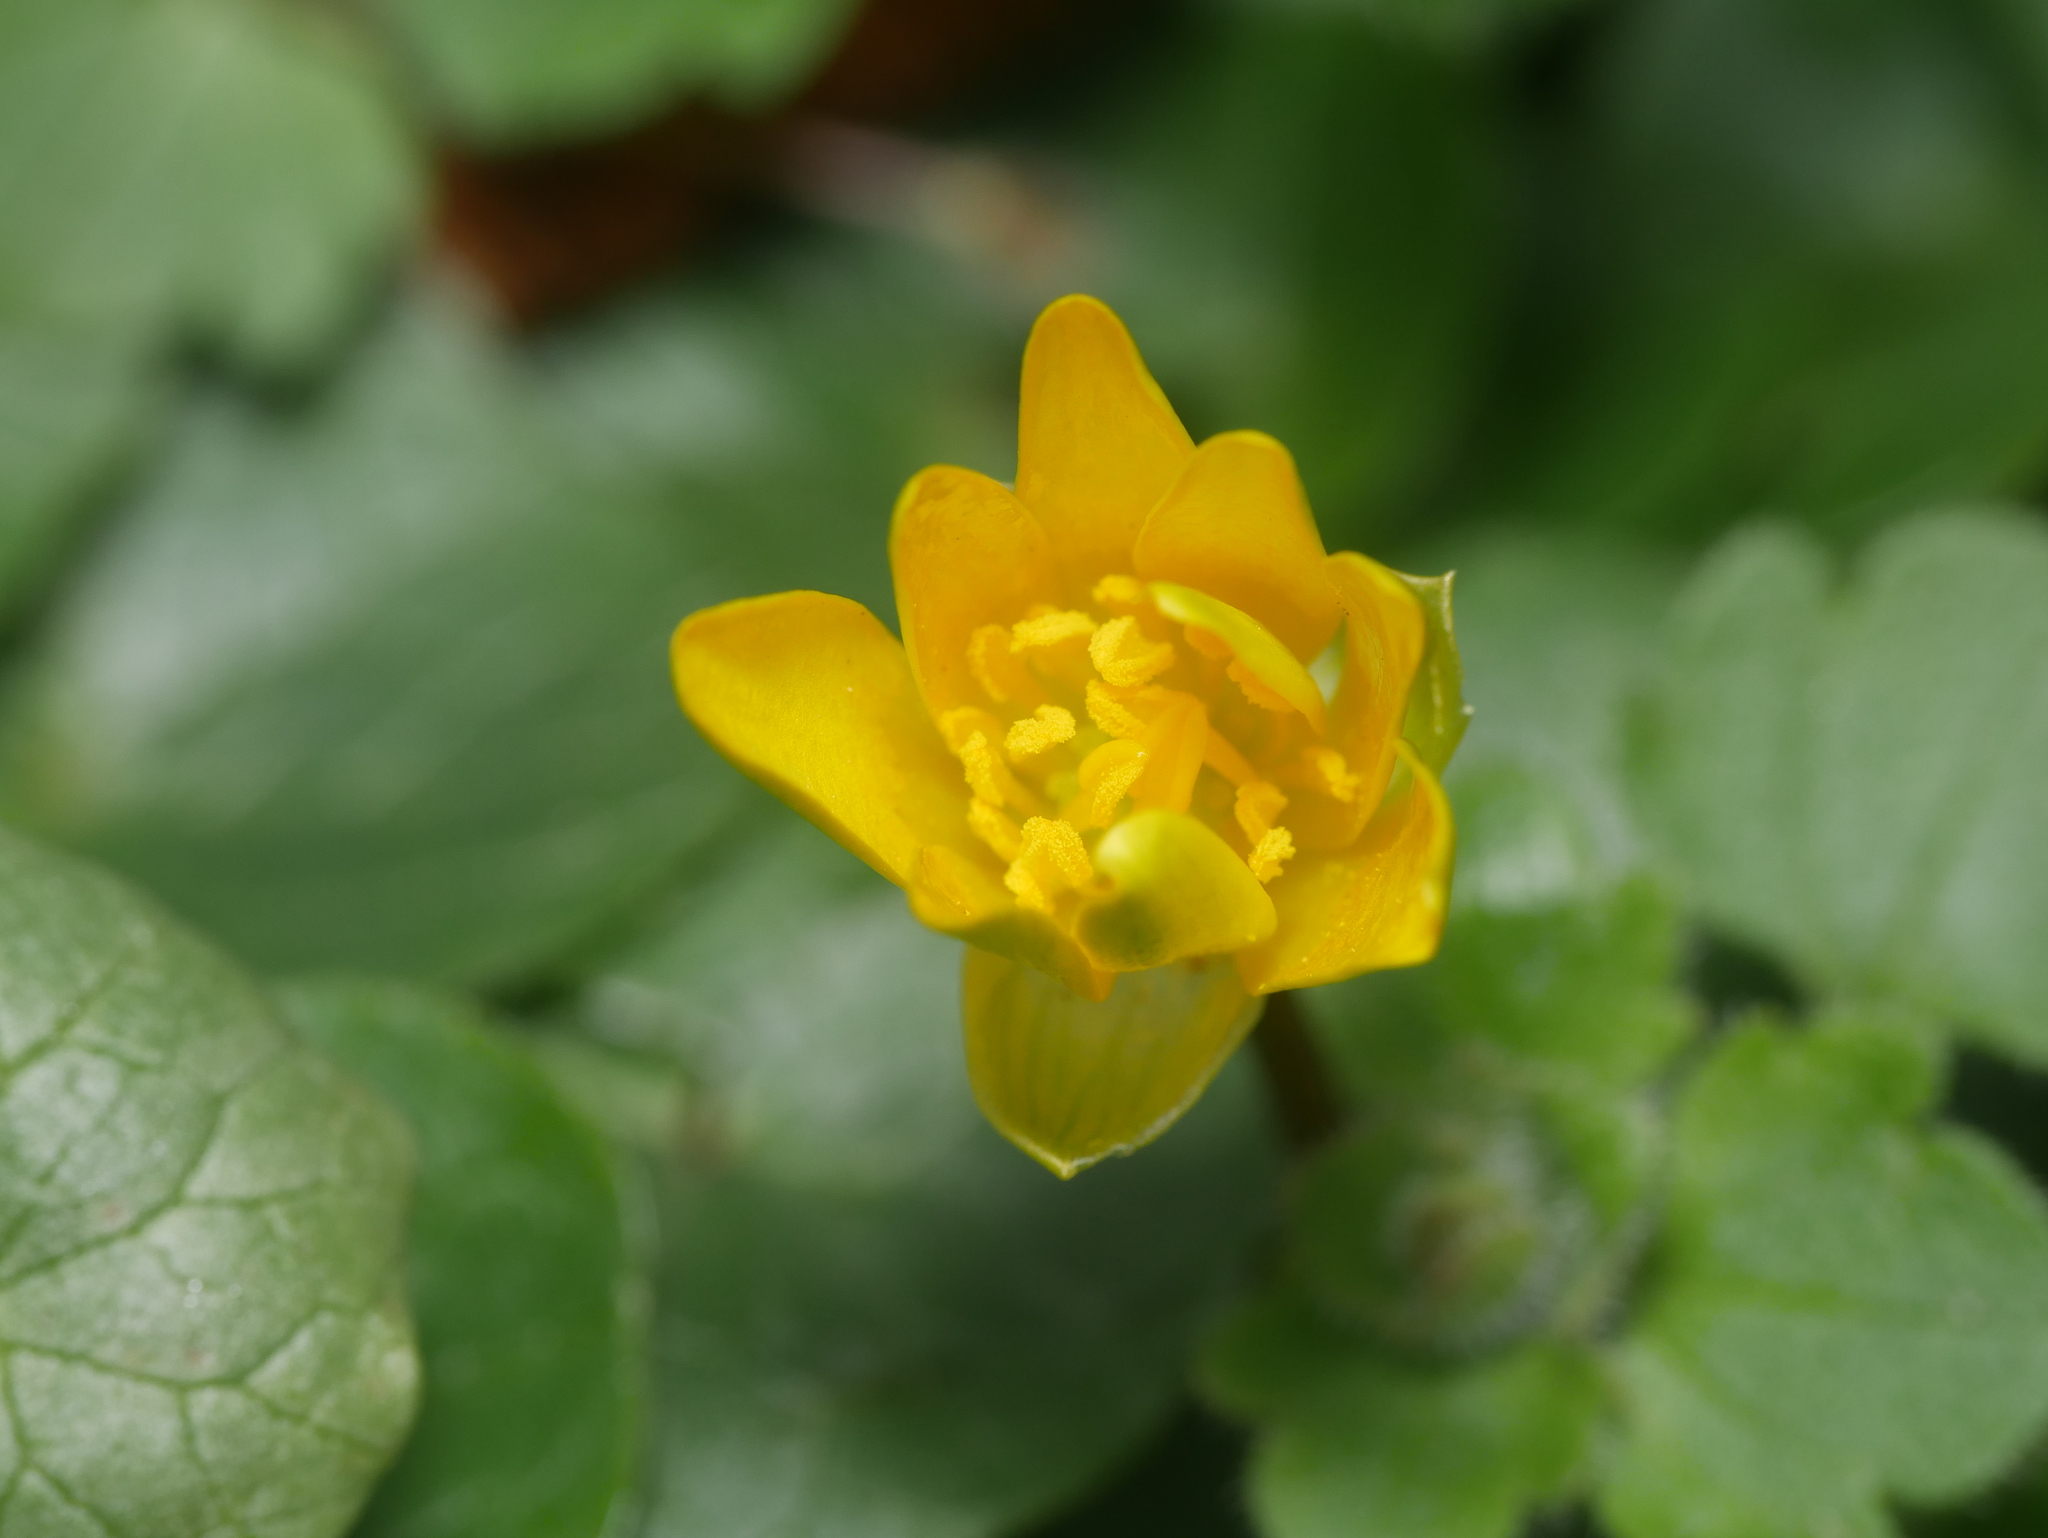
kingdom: Plantae
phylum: Tracheophyta
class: Magnoliopsida
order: Ranunculales
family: Ranunculaceae
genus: Ficaria
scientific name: Ficaria verna
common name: Lesser celandine
